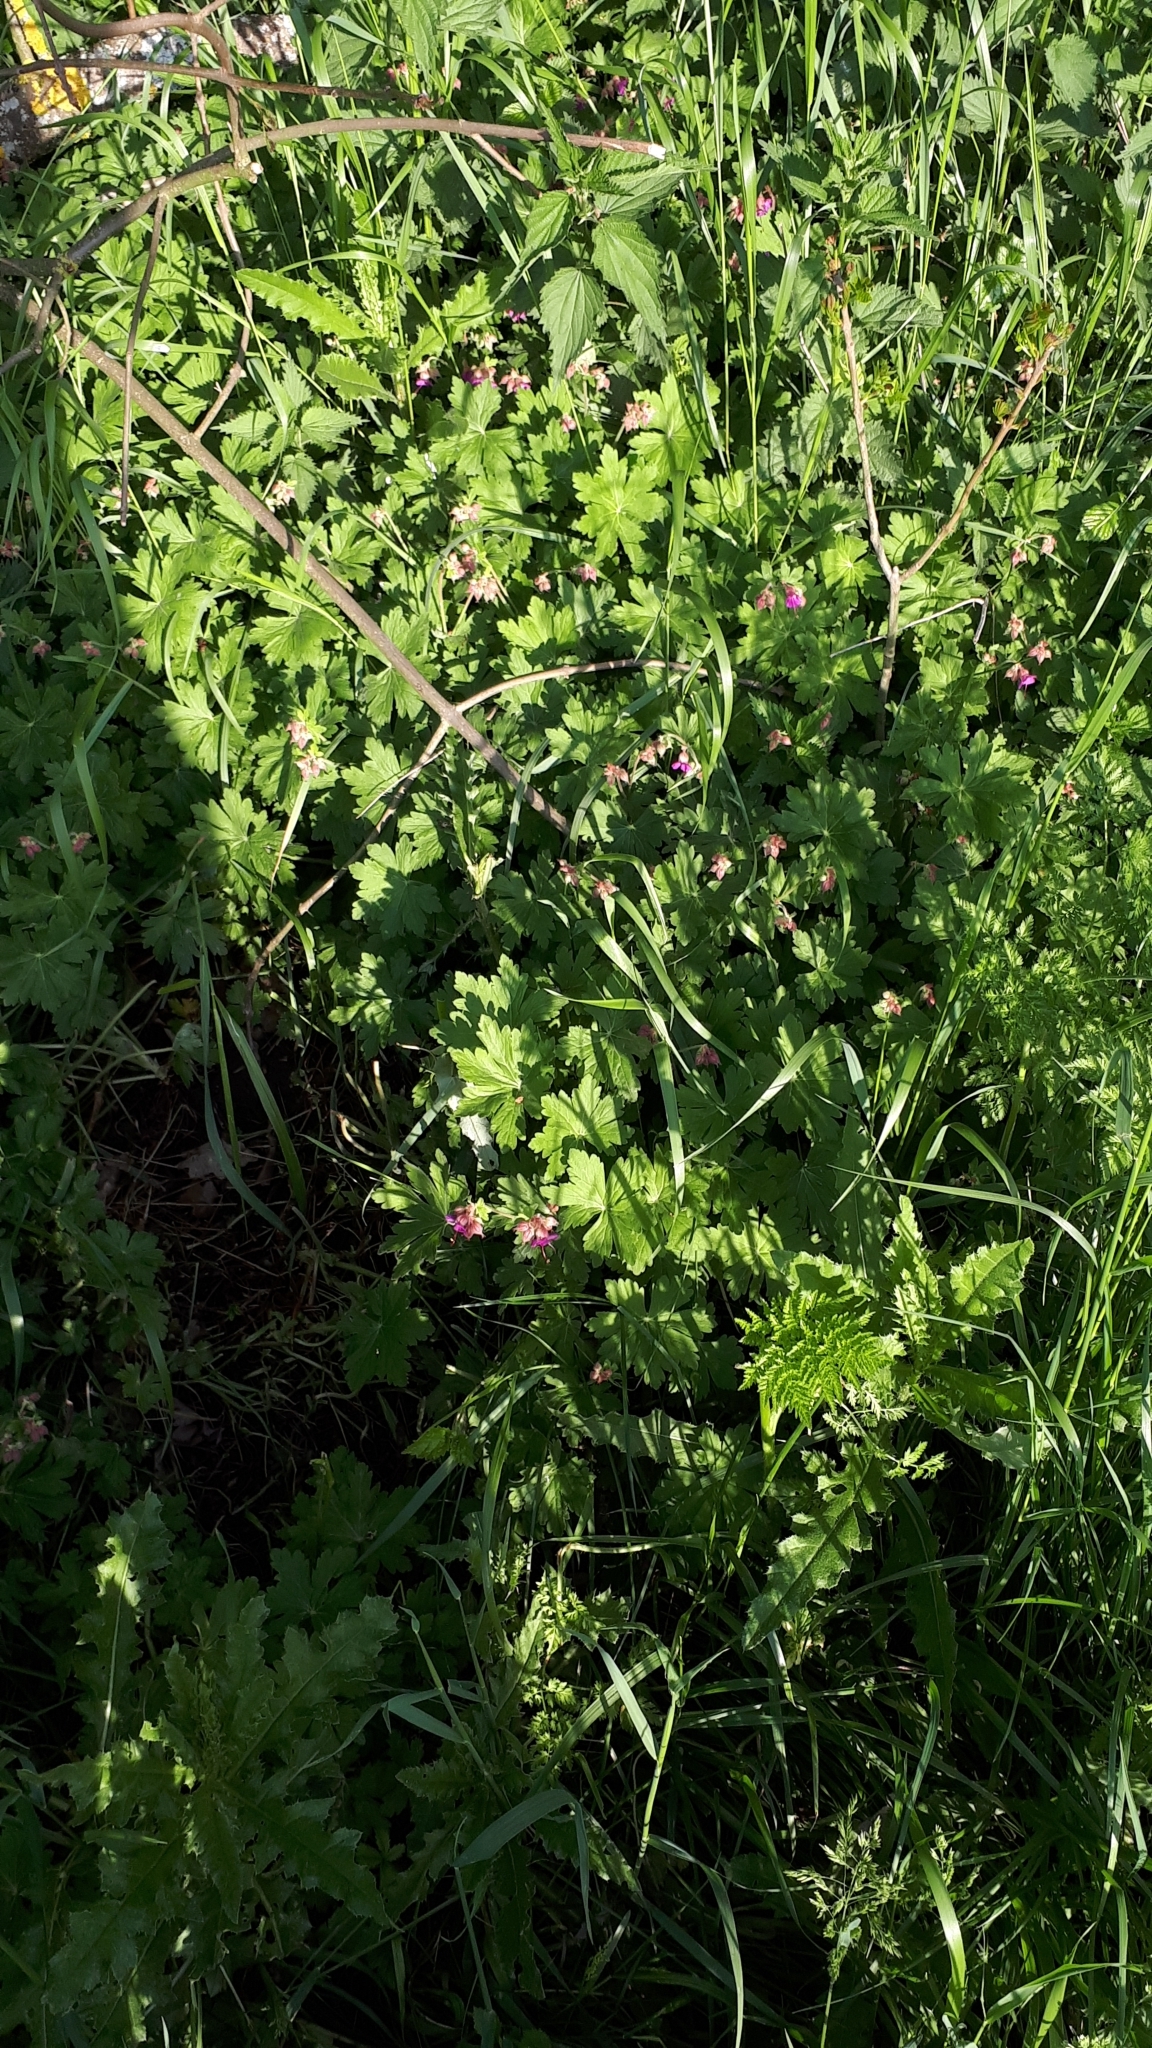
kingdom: Plantae
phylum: Tracheophyta
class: Magnoliopsida
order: Geraniales
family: Geraniaceae
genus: Geranium
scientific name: Geranium macrorrhizum
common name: Rock crane's-bill
